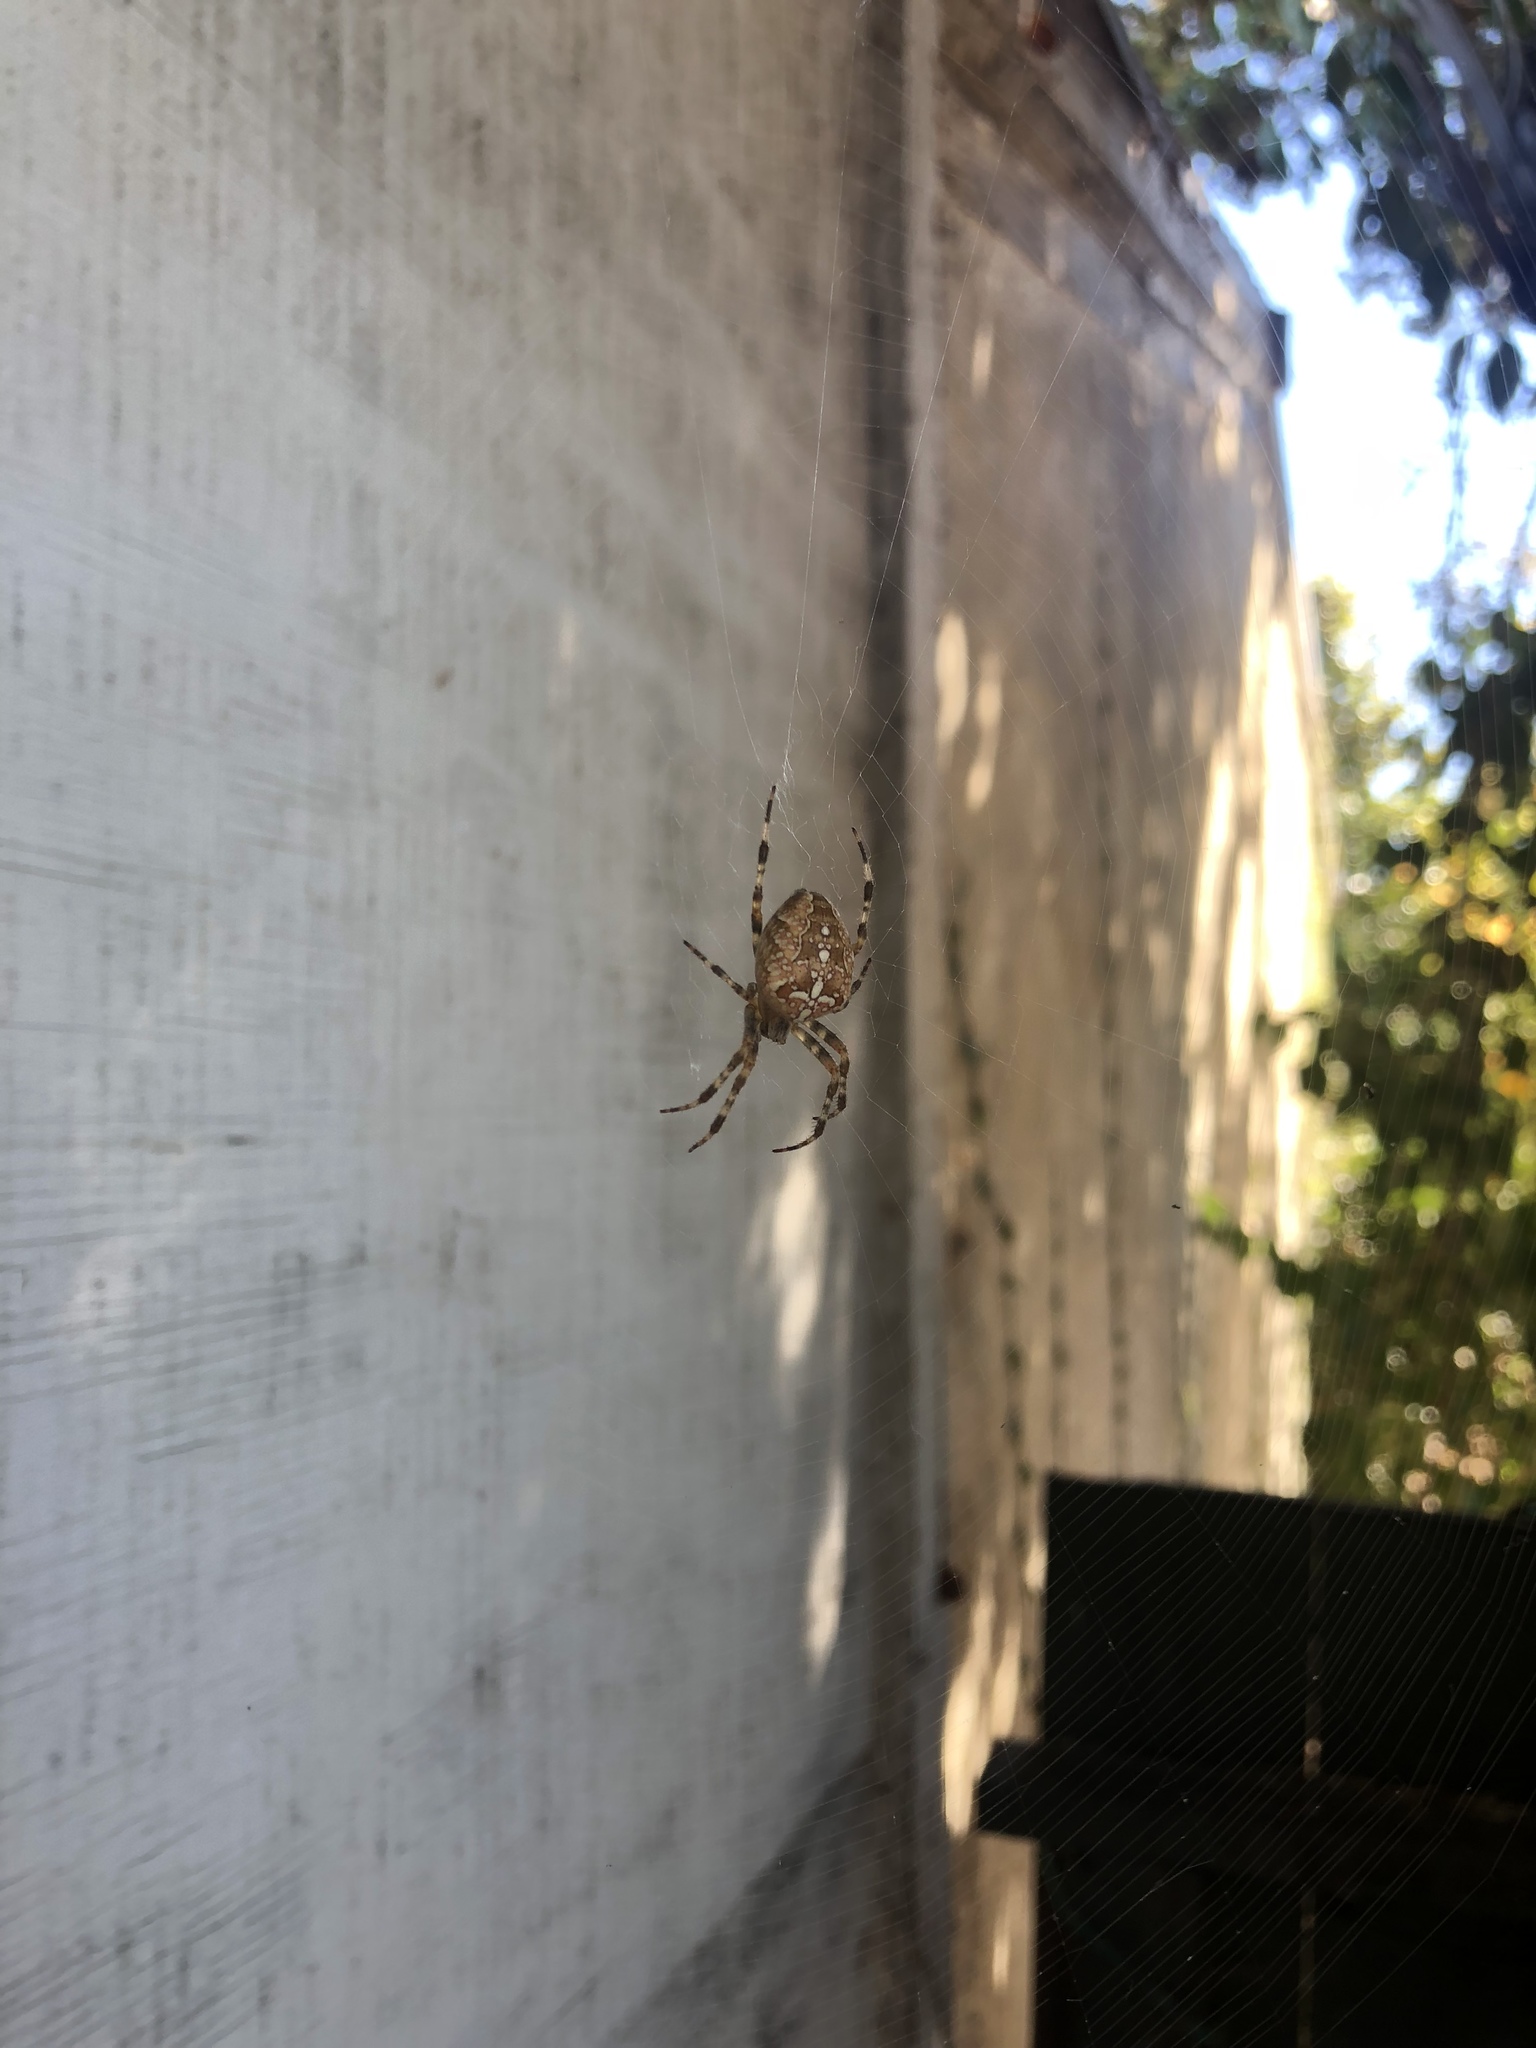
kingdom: Animalia
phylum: Arthropoda
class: Arachnida
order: Araneae
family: Araneidae
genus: Araneus
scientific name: Araneus diadematus
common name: Cross orbweaver
